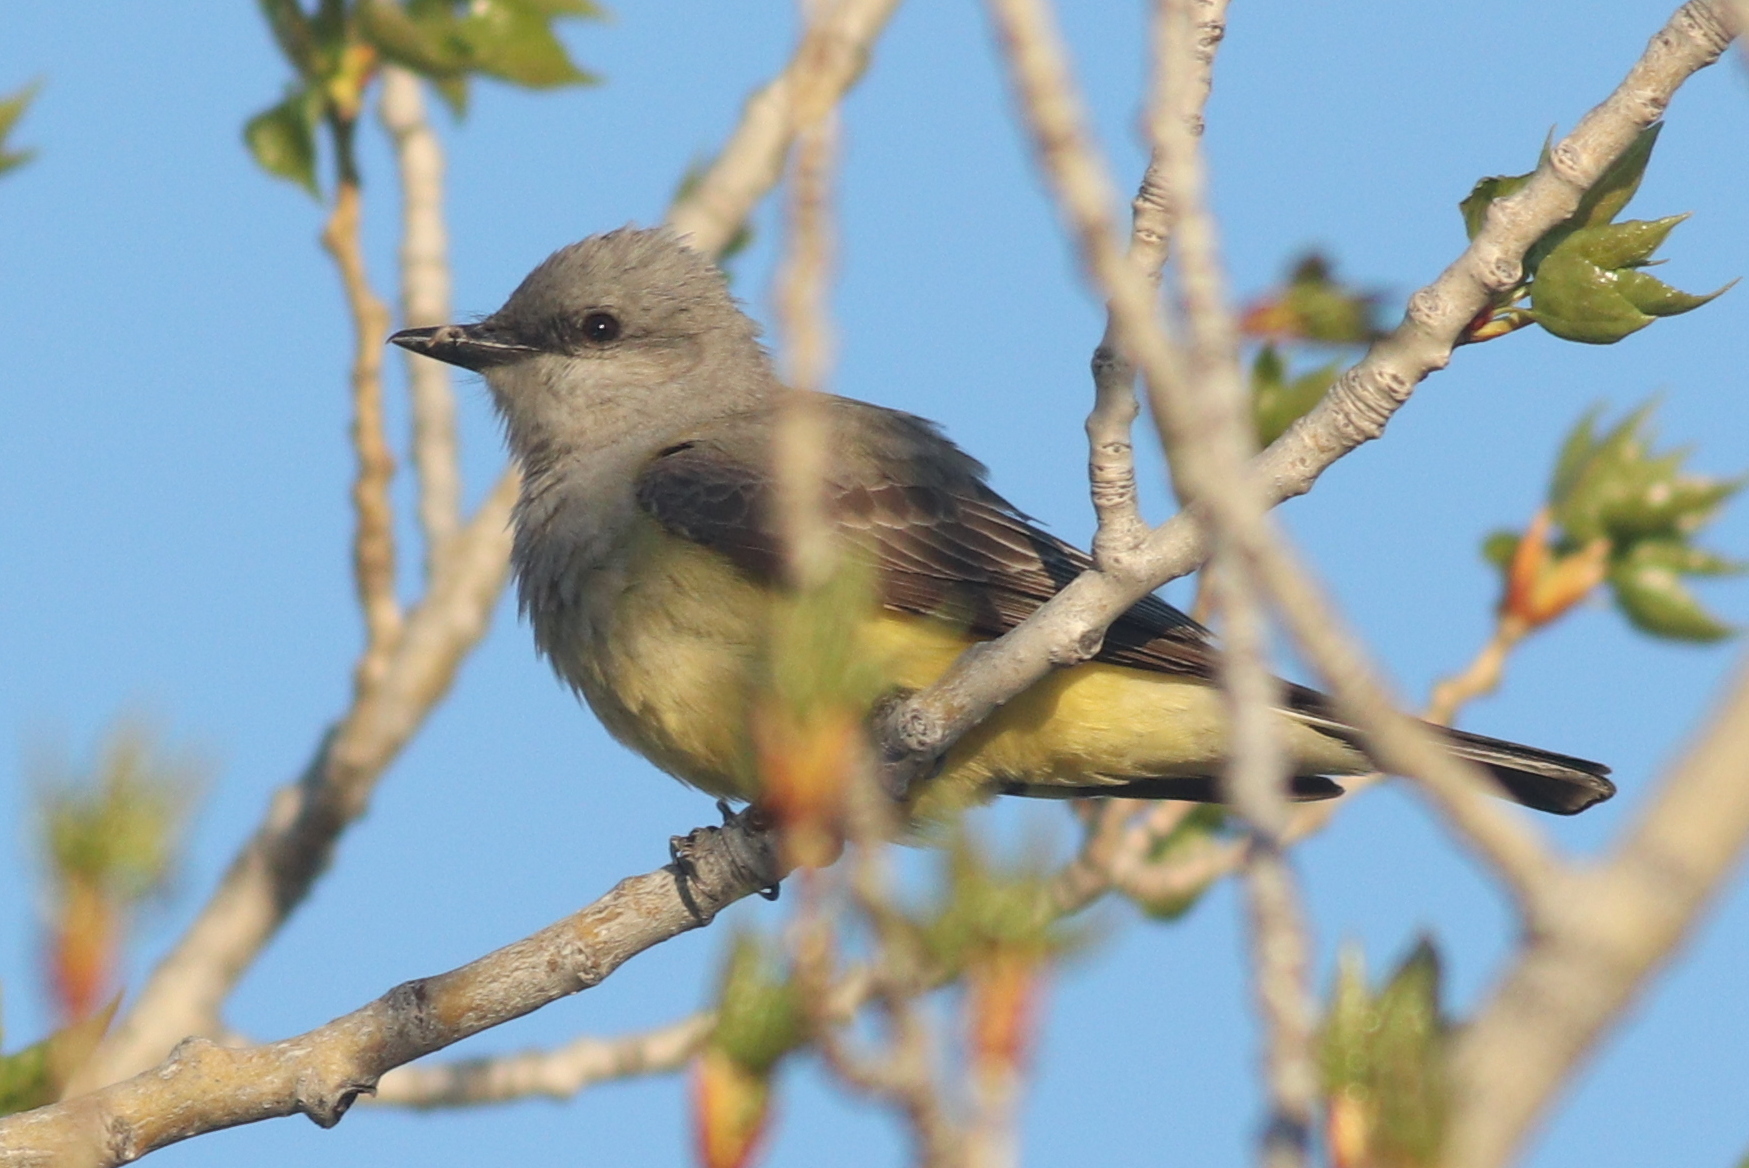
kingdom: Animalia
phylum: Chordata
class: Aves
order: Passeriformes
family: Tyrannidae
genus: Tyrannus
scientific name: Tyrannus verticalis
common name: Western kingbird
